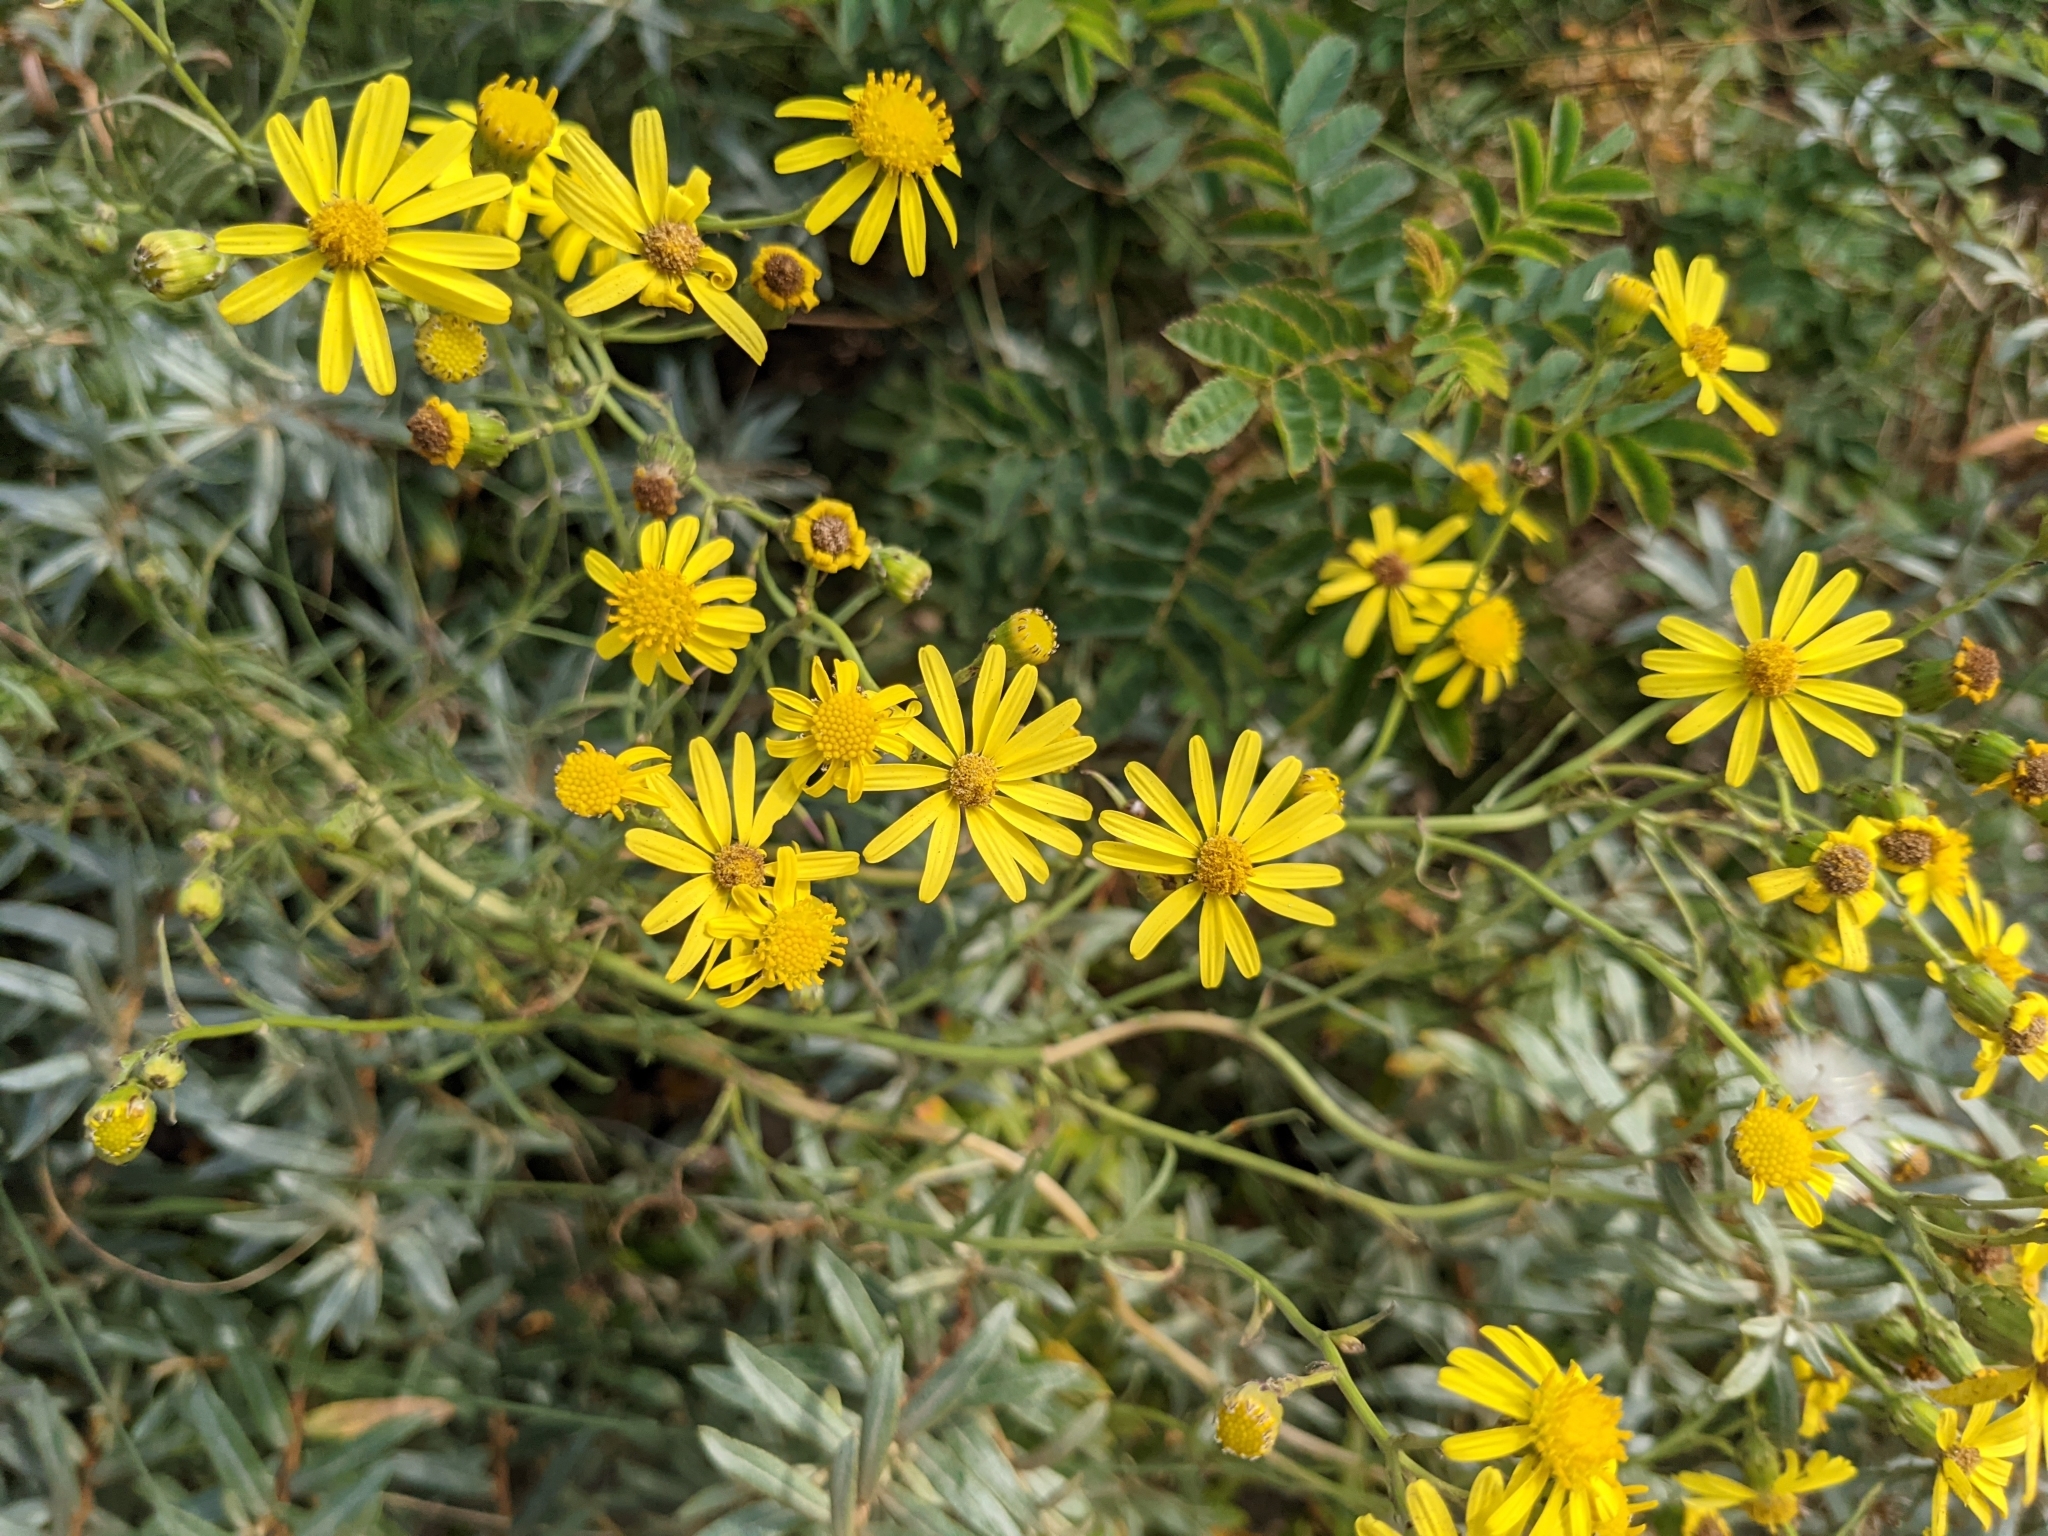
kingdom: Plantae
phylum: Tracheophyta
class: Magnoliopsida
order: Asterales
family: Asteraceae
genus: Senecio
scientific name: Senecio inaequidens
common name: Narrow-leaved ragwort
